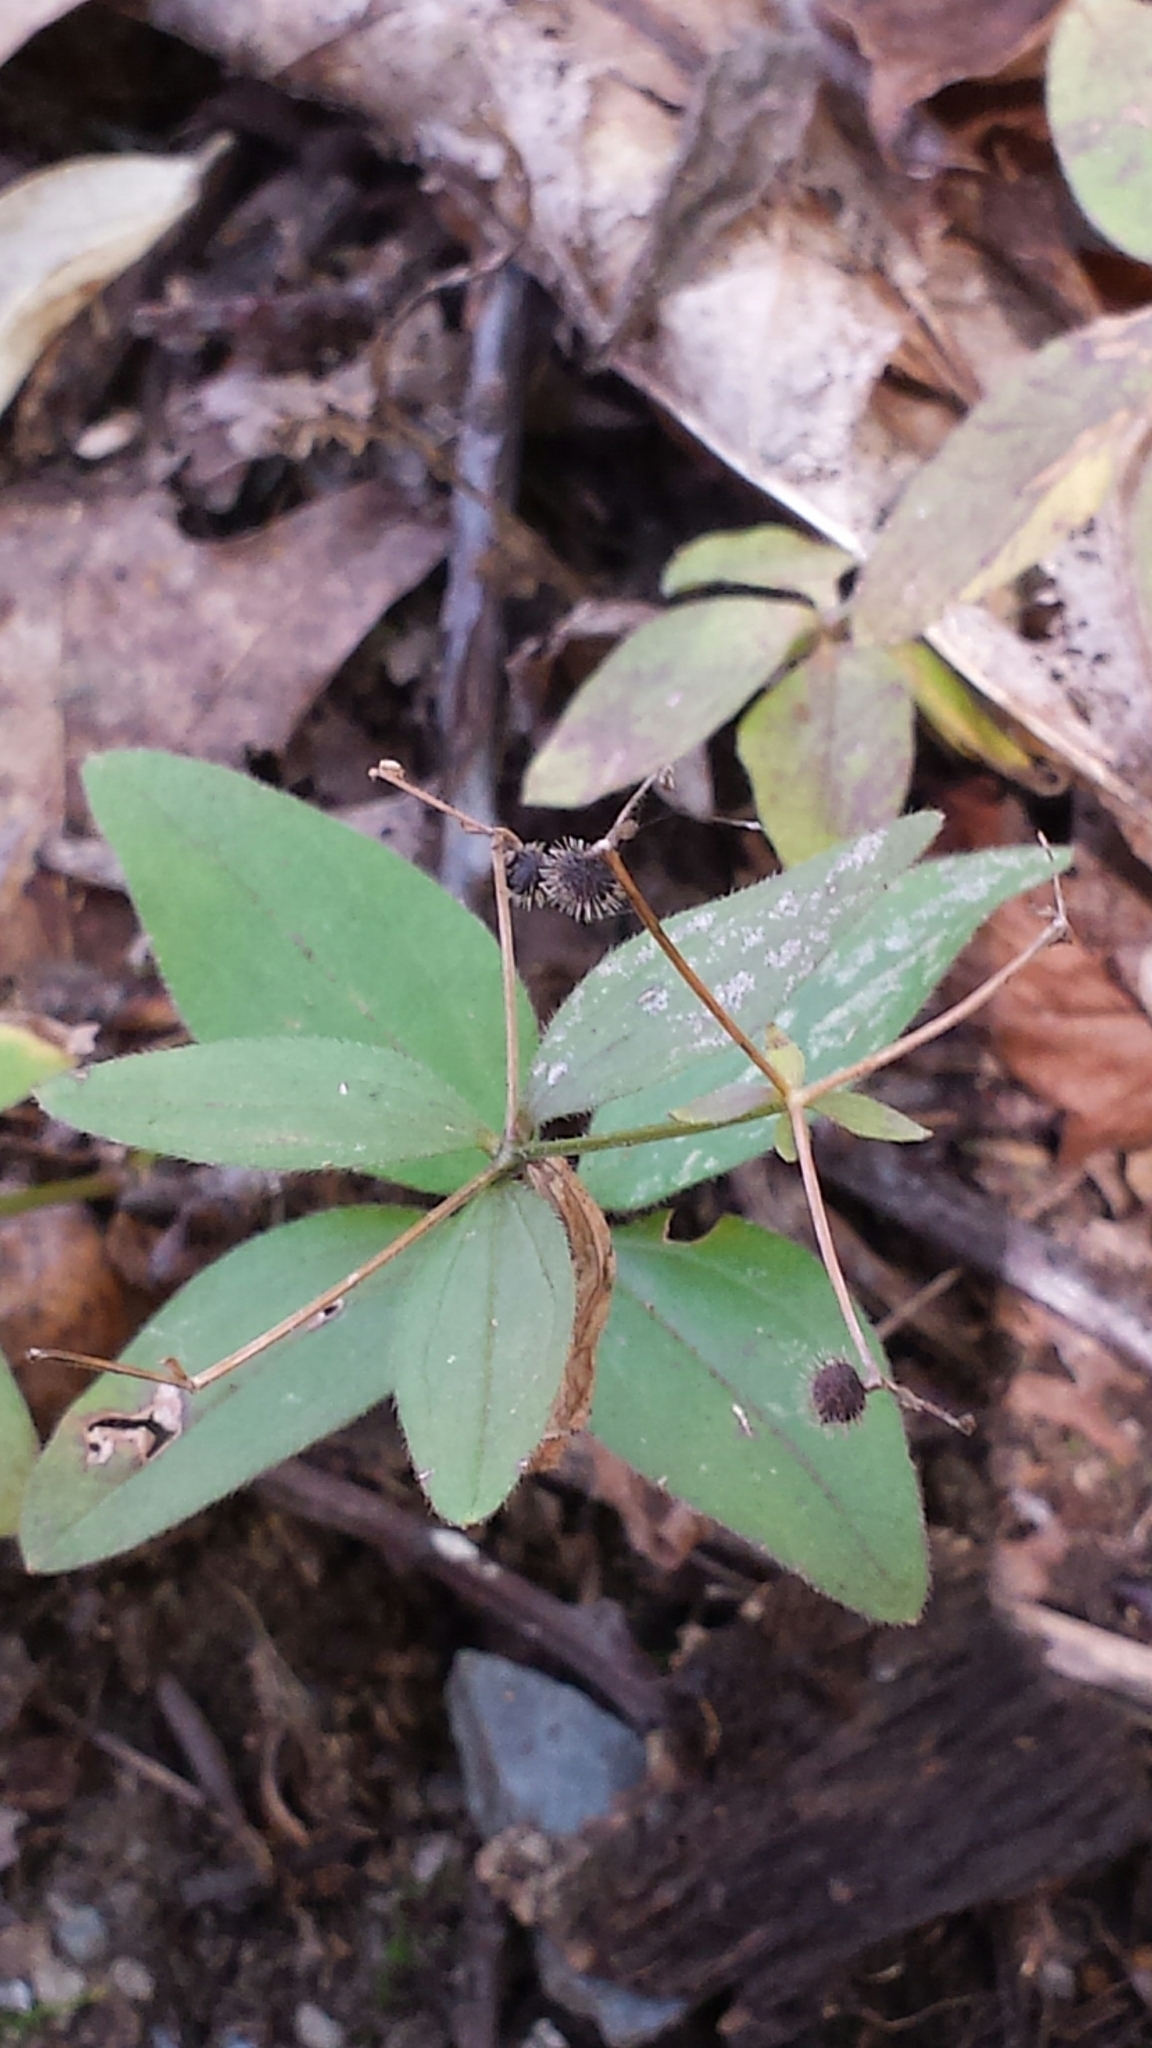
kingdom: Plantae
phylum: Tracheophyta
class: Magnoliopsida
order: Gentianales
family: Rubiaceae
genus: Galium
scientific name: Galium circaezans
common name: Forest bedstraw
